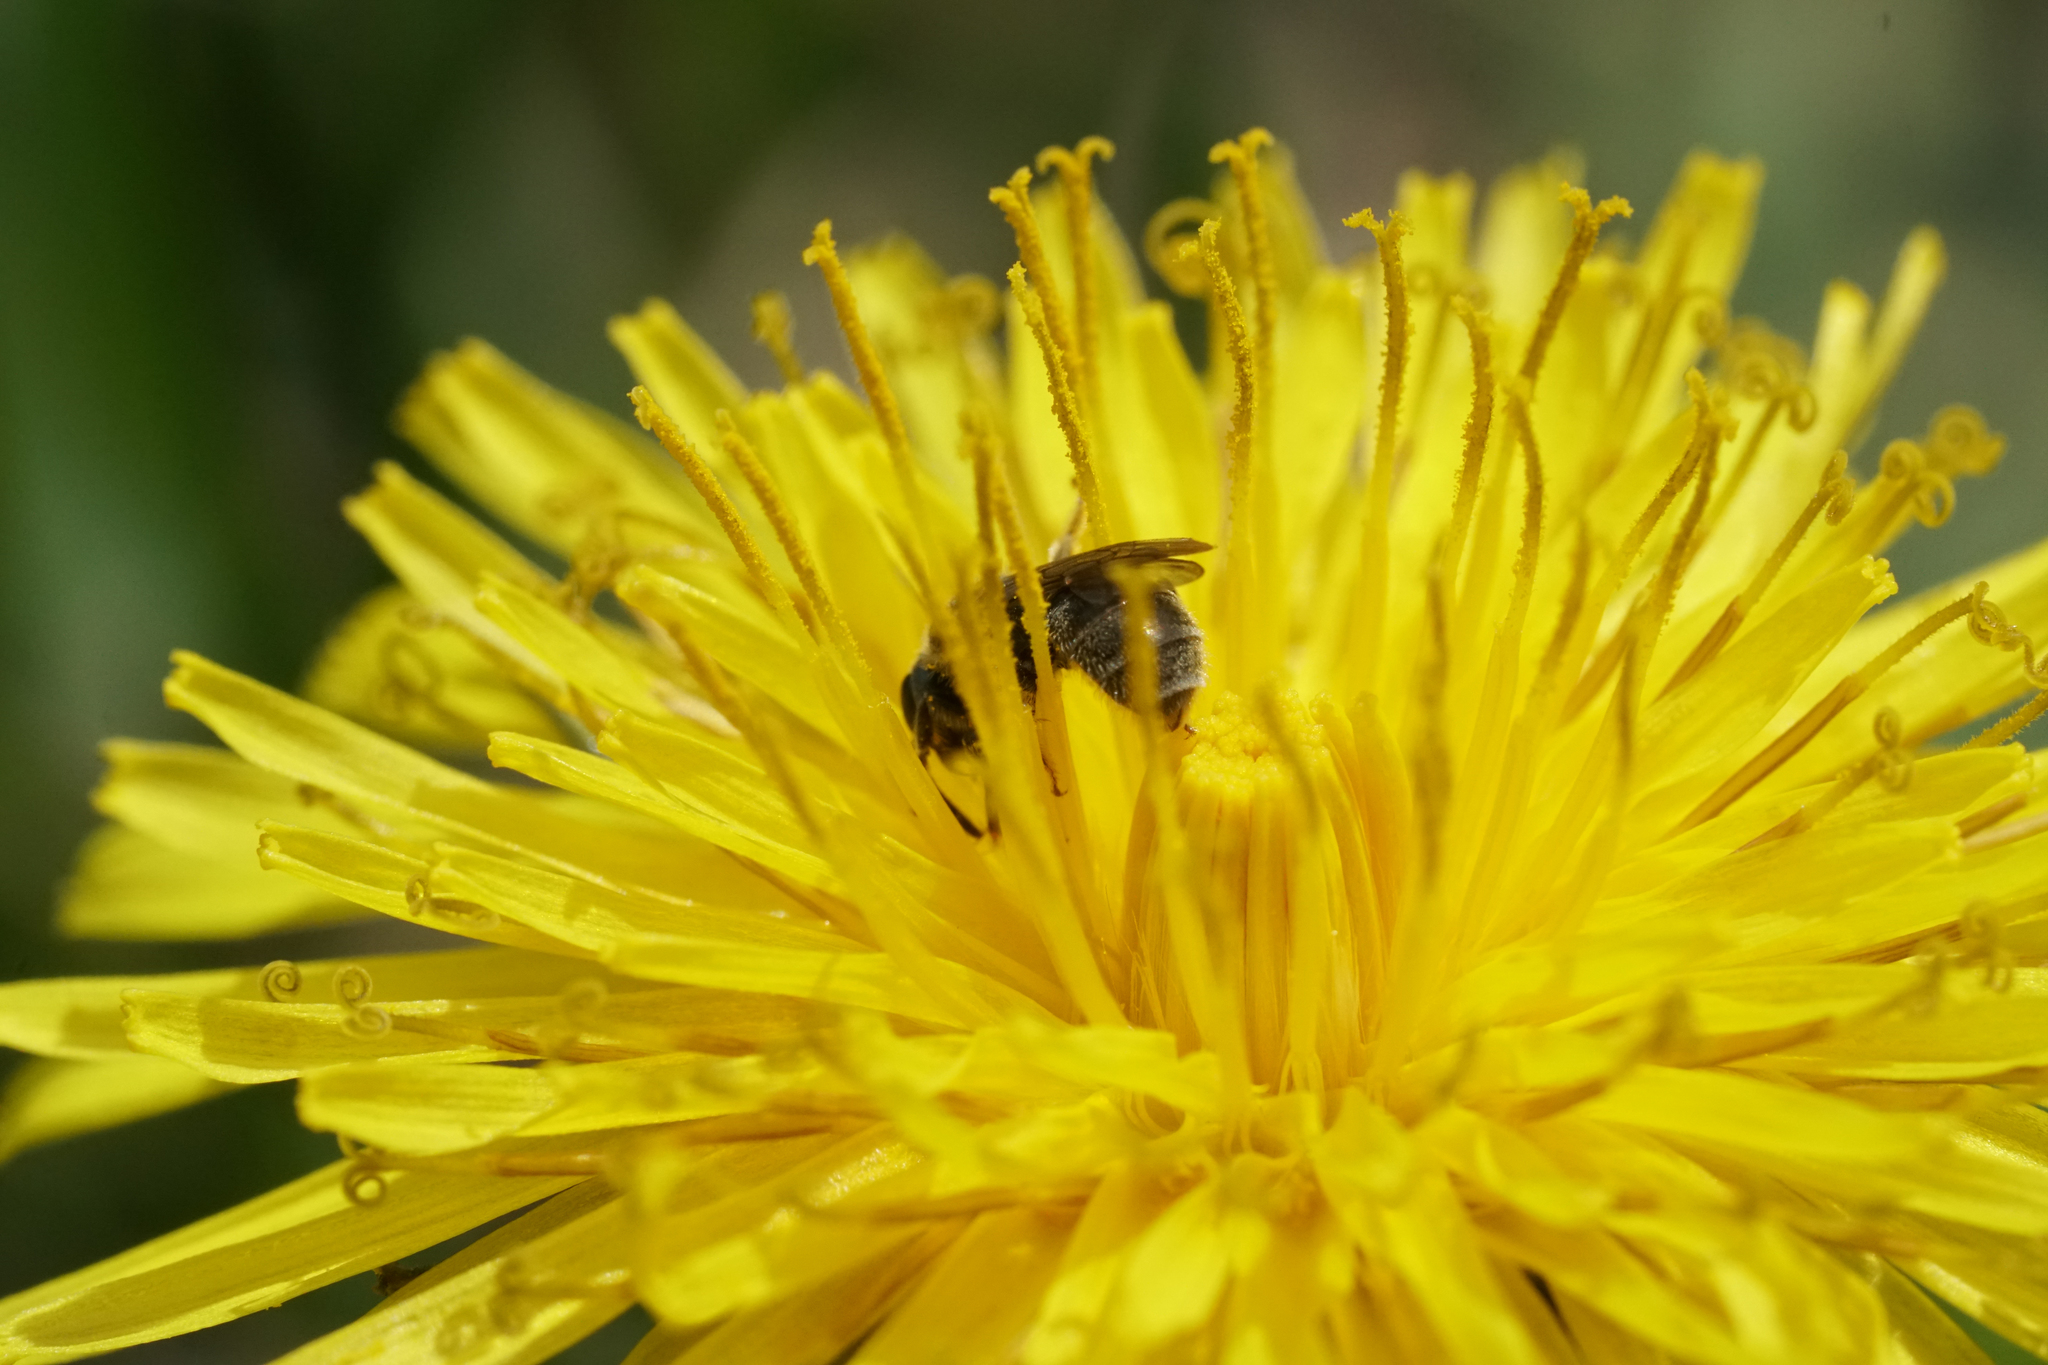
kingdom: Animalia
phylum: Arthropoda
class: Insecta
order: Hymenoptera
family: Halictidae
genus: Dialictus
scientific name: Dialictus
